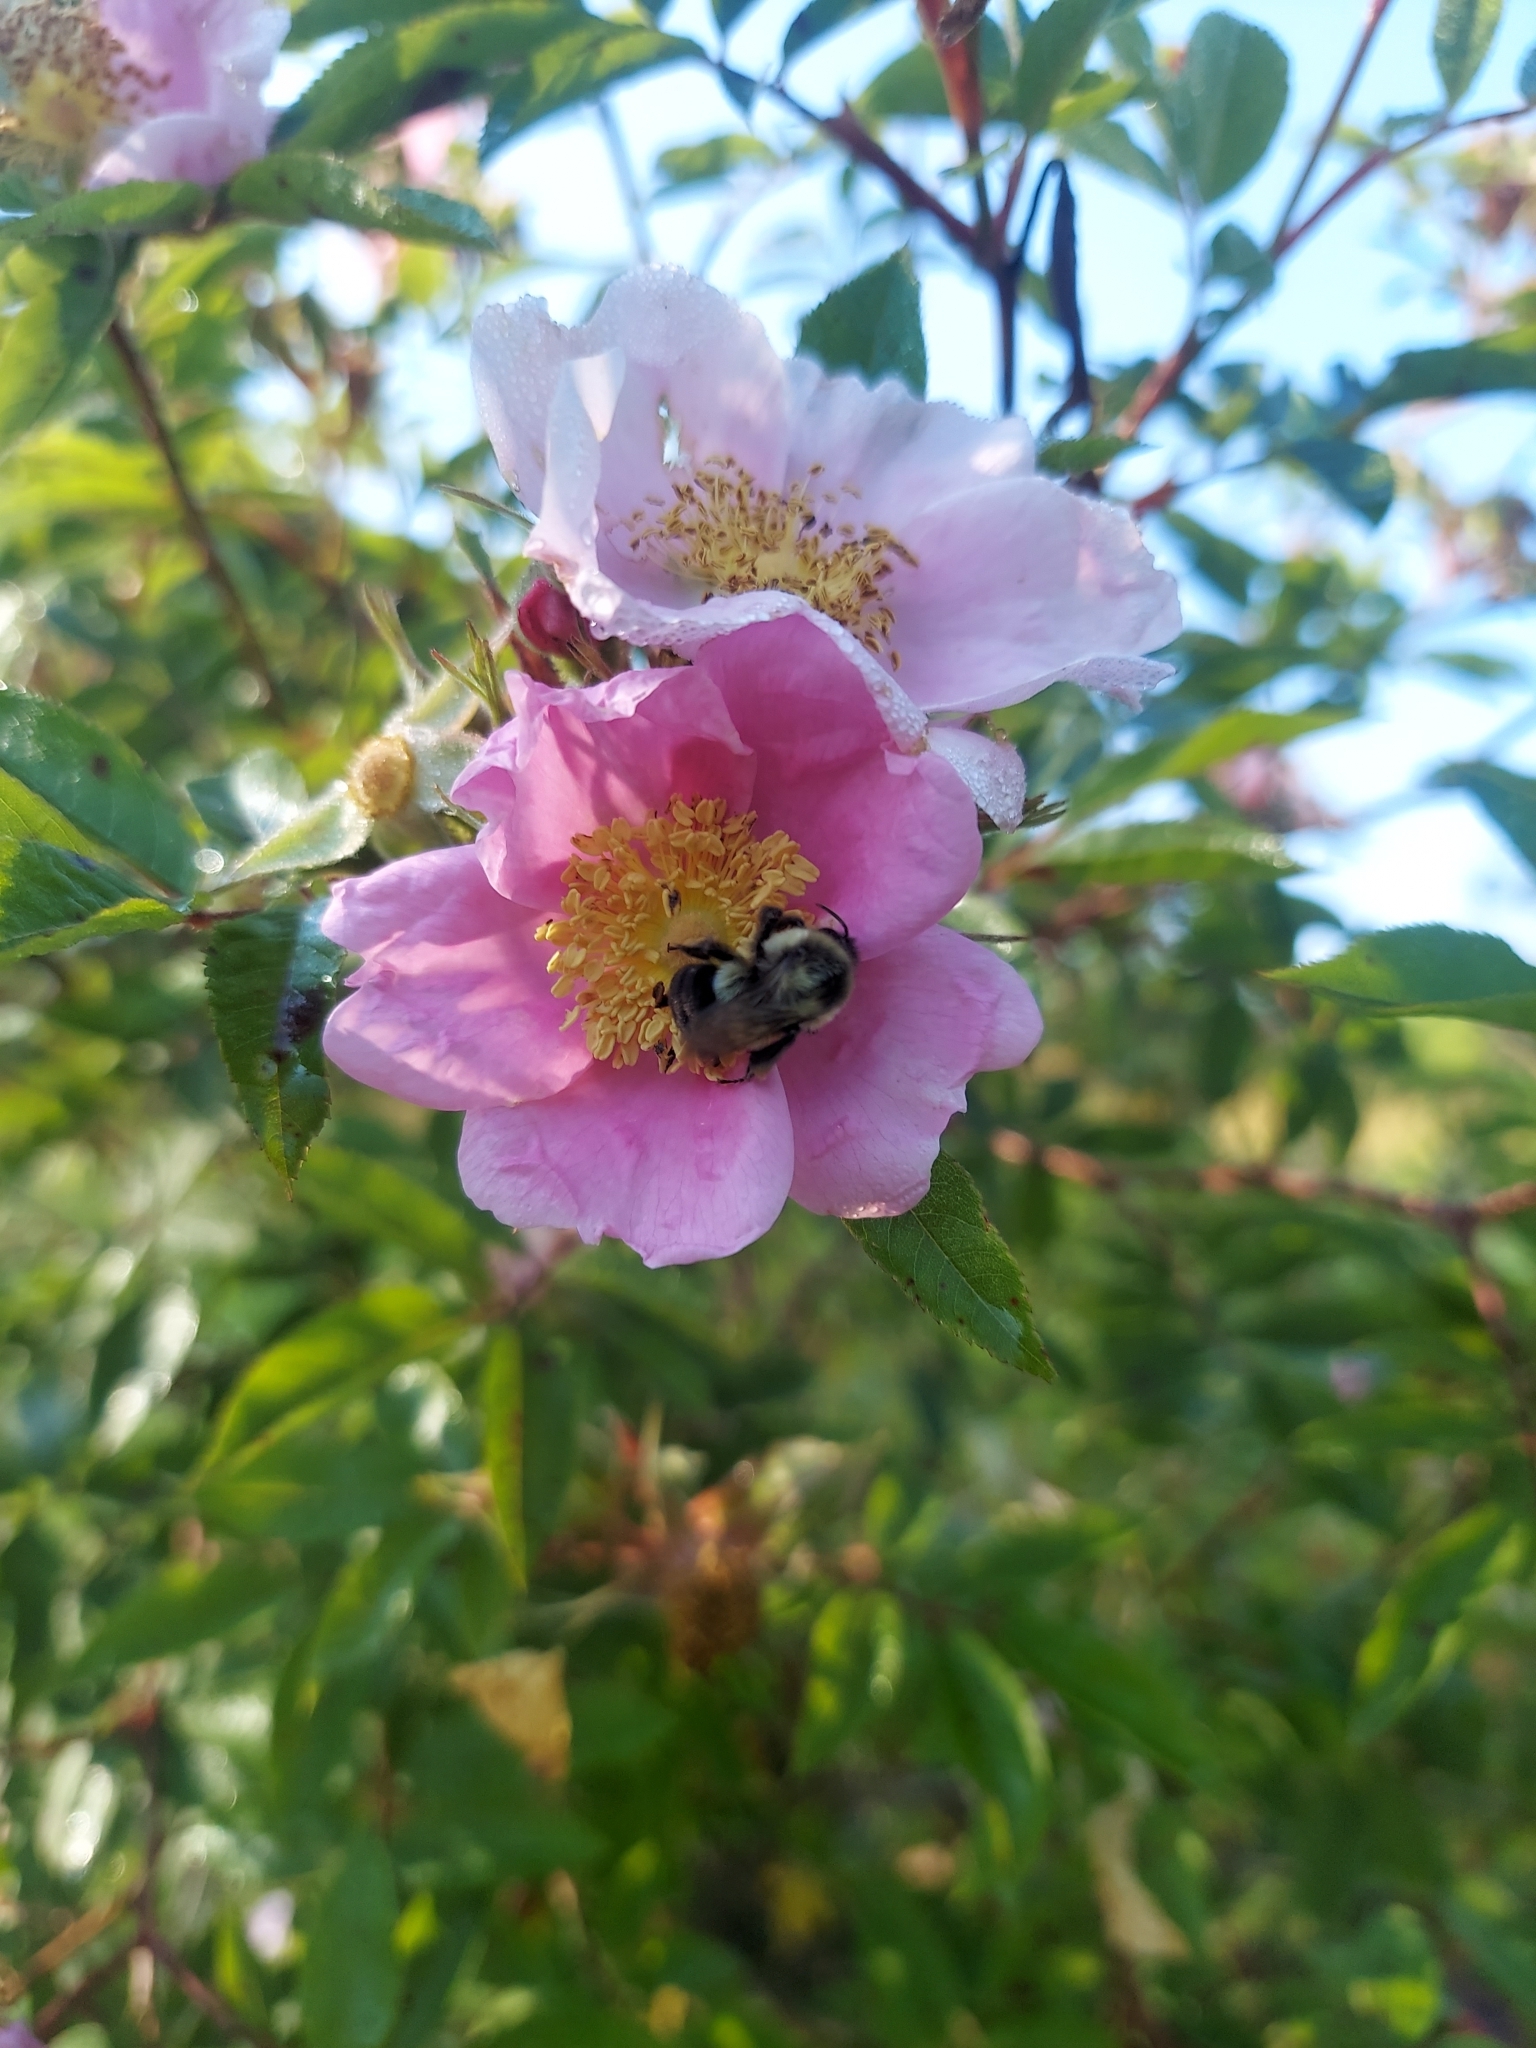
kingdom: Animalia
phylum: Arthropoda
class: Insecta
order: Hymenoptera
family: Apidae
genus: Bombus
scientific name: Bombus impatiens
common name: Common eastern bumble bee
